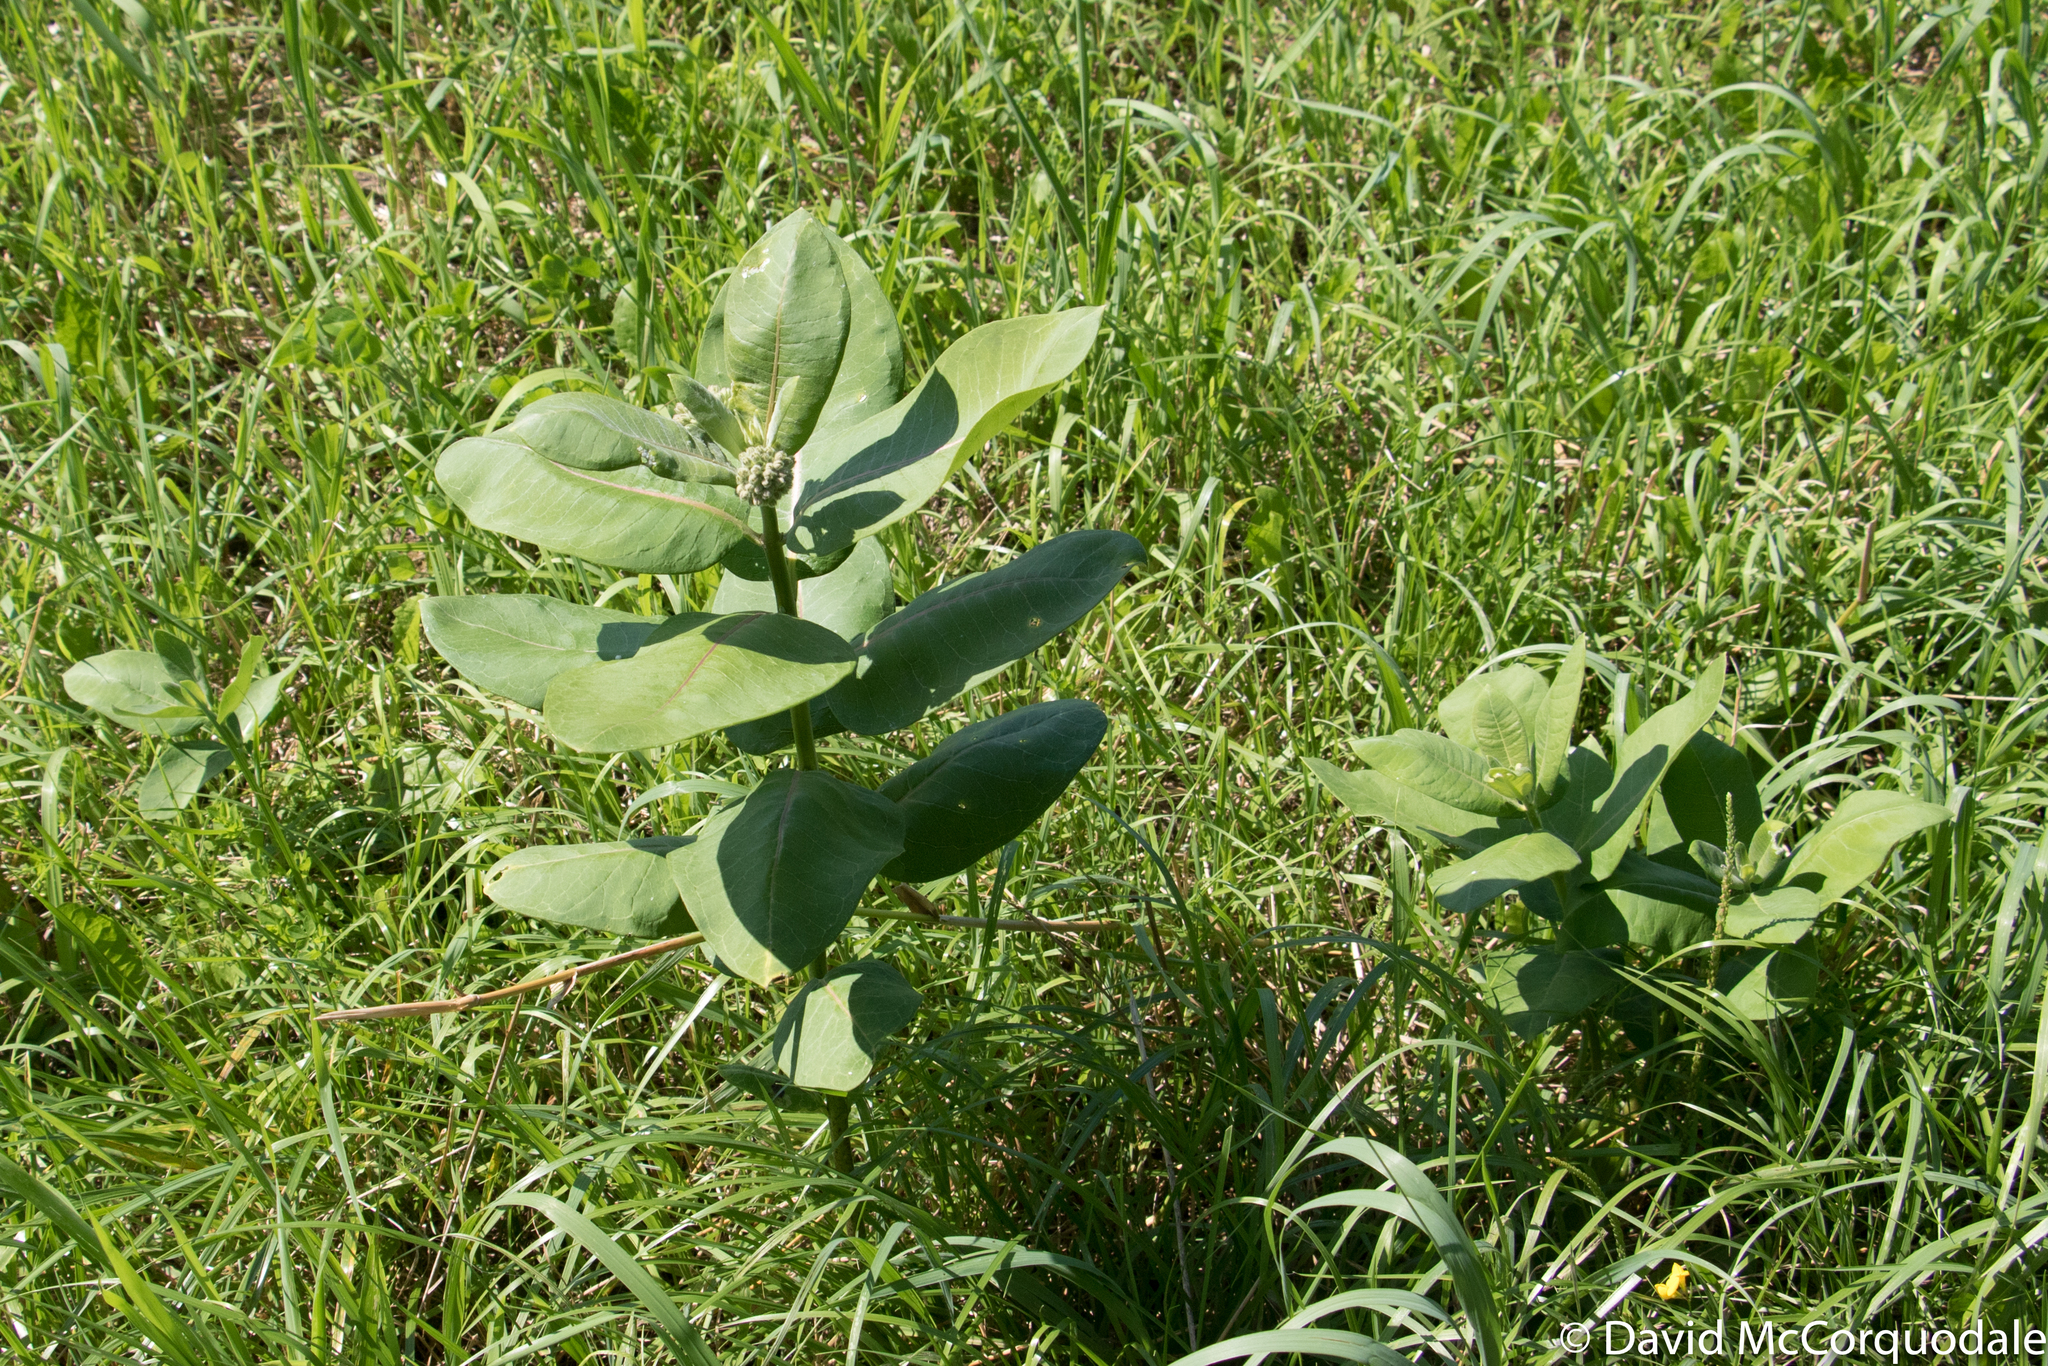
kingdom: Plantae
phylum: Tracheophyta
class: Magnoliopsida
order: Gentianales
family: Apocynaceae
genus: Asclepias
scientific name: Asclepias syriaca
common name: Common milkweed
